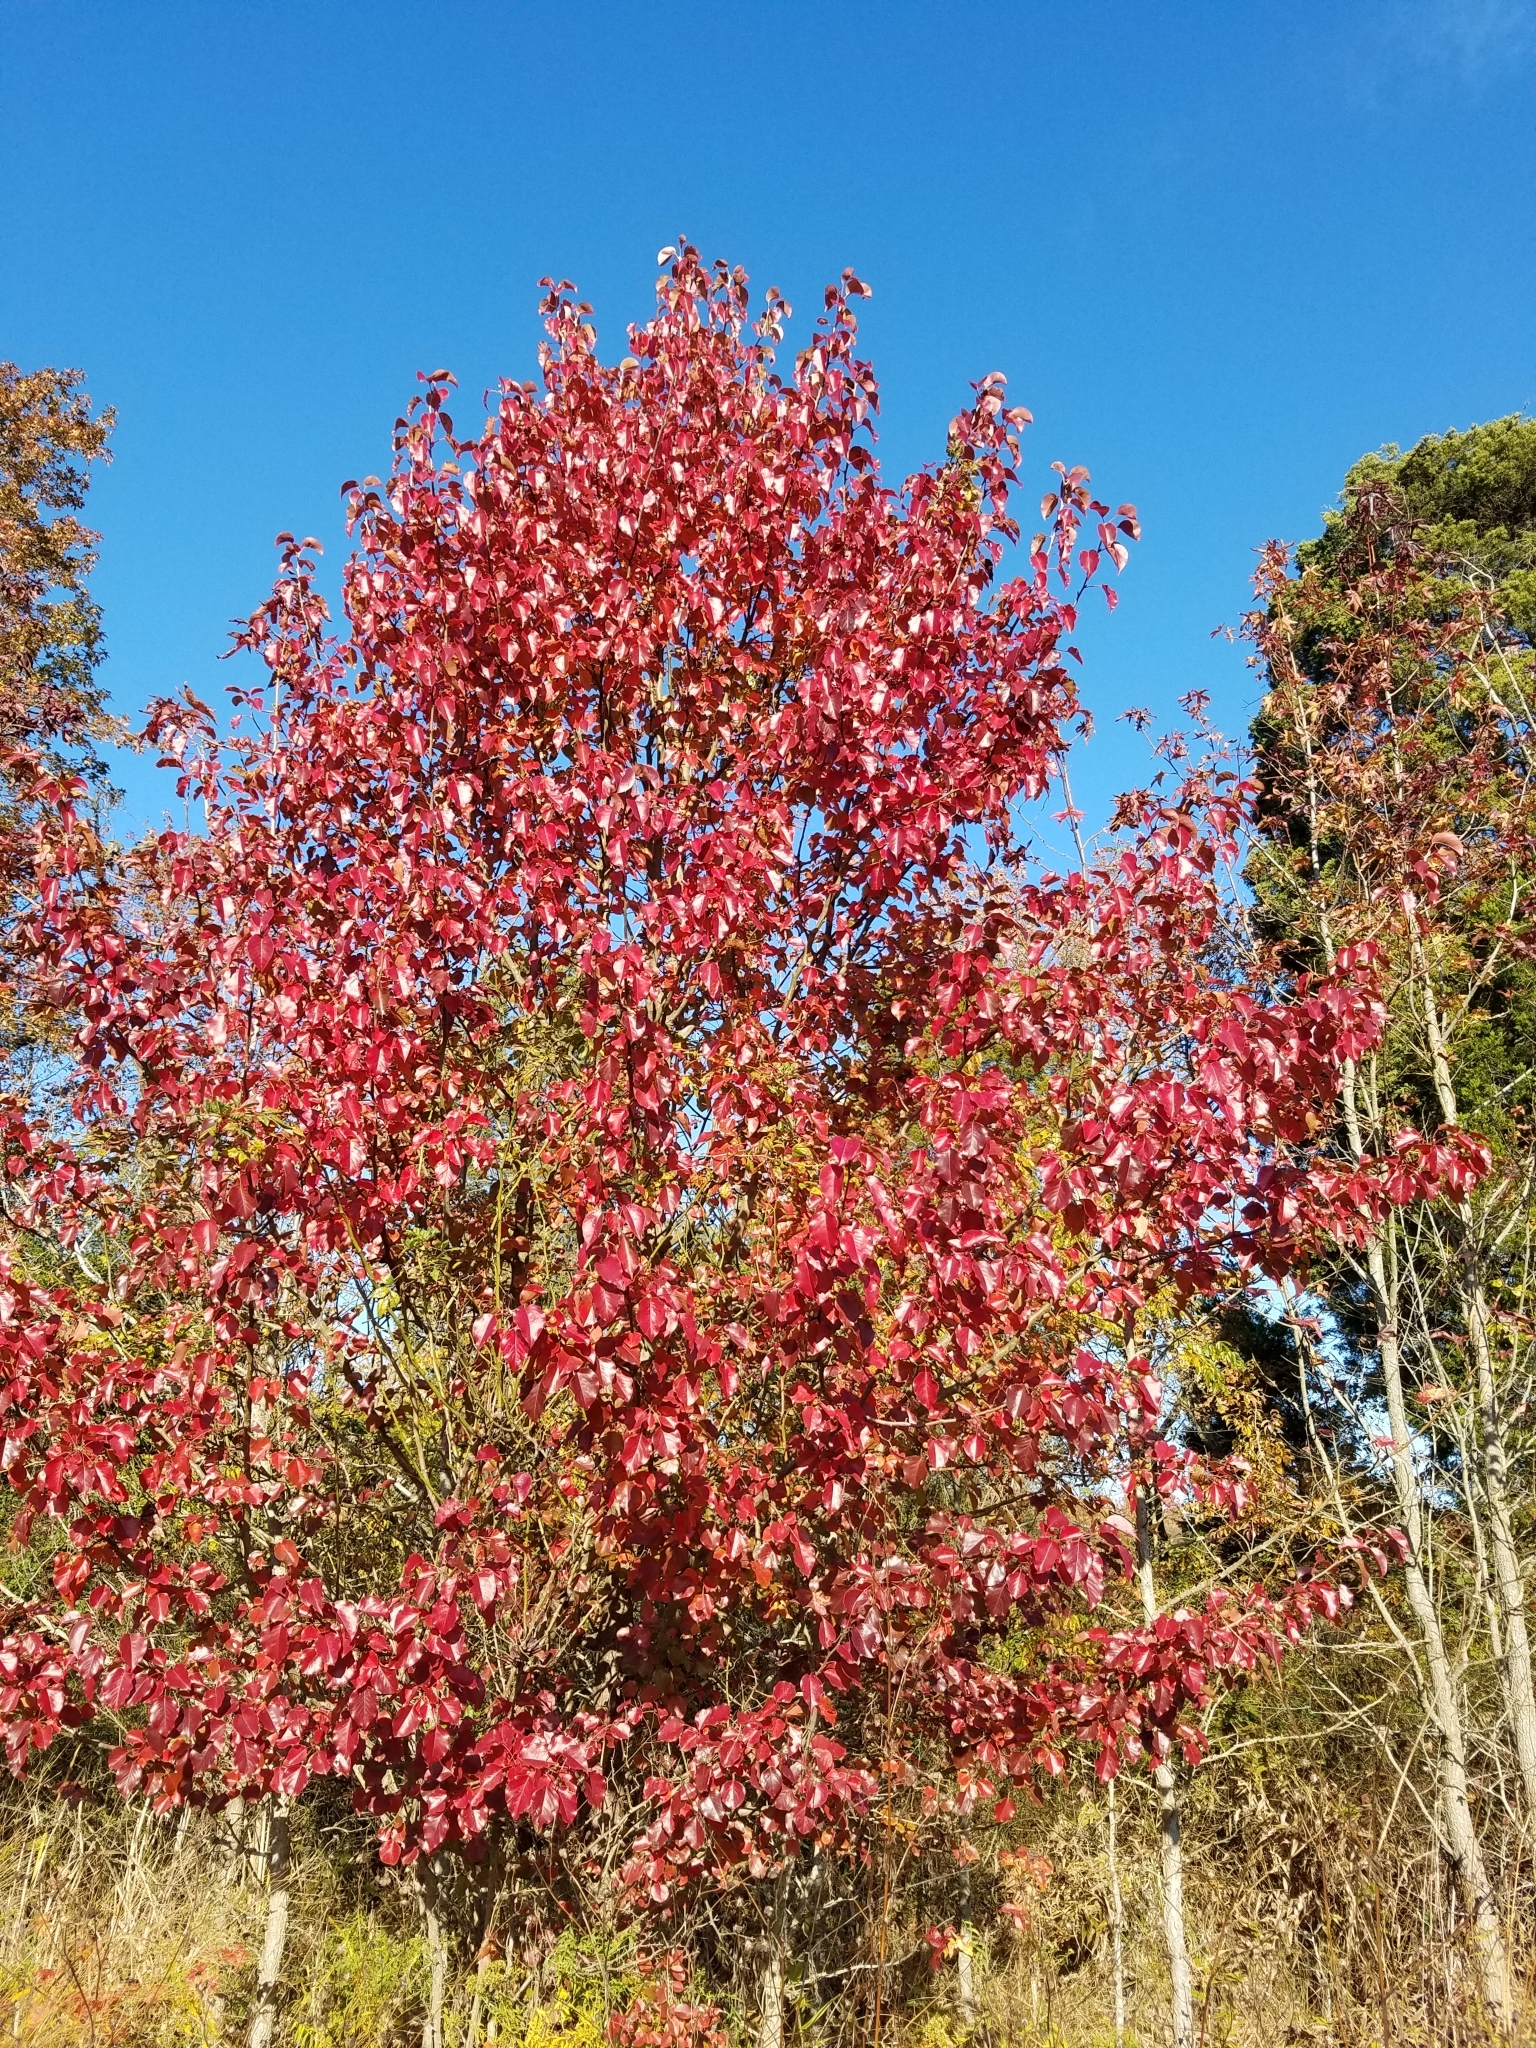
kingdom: Plantae
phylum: Tracheophyta
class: Magnoliopsida
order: Rosales
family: Rosaceae
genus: Pyrus
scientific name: Pyrus calleryana
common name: Callery pear
